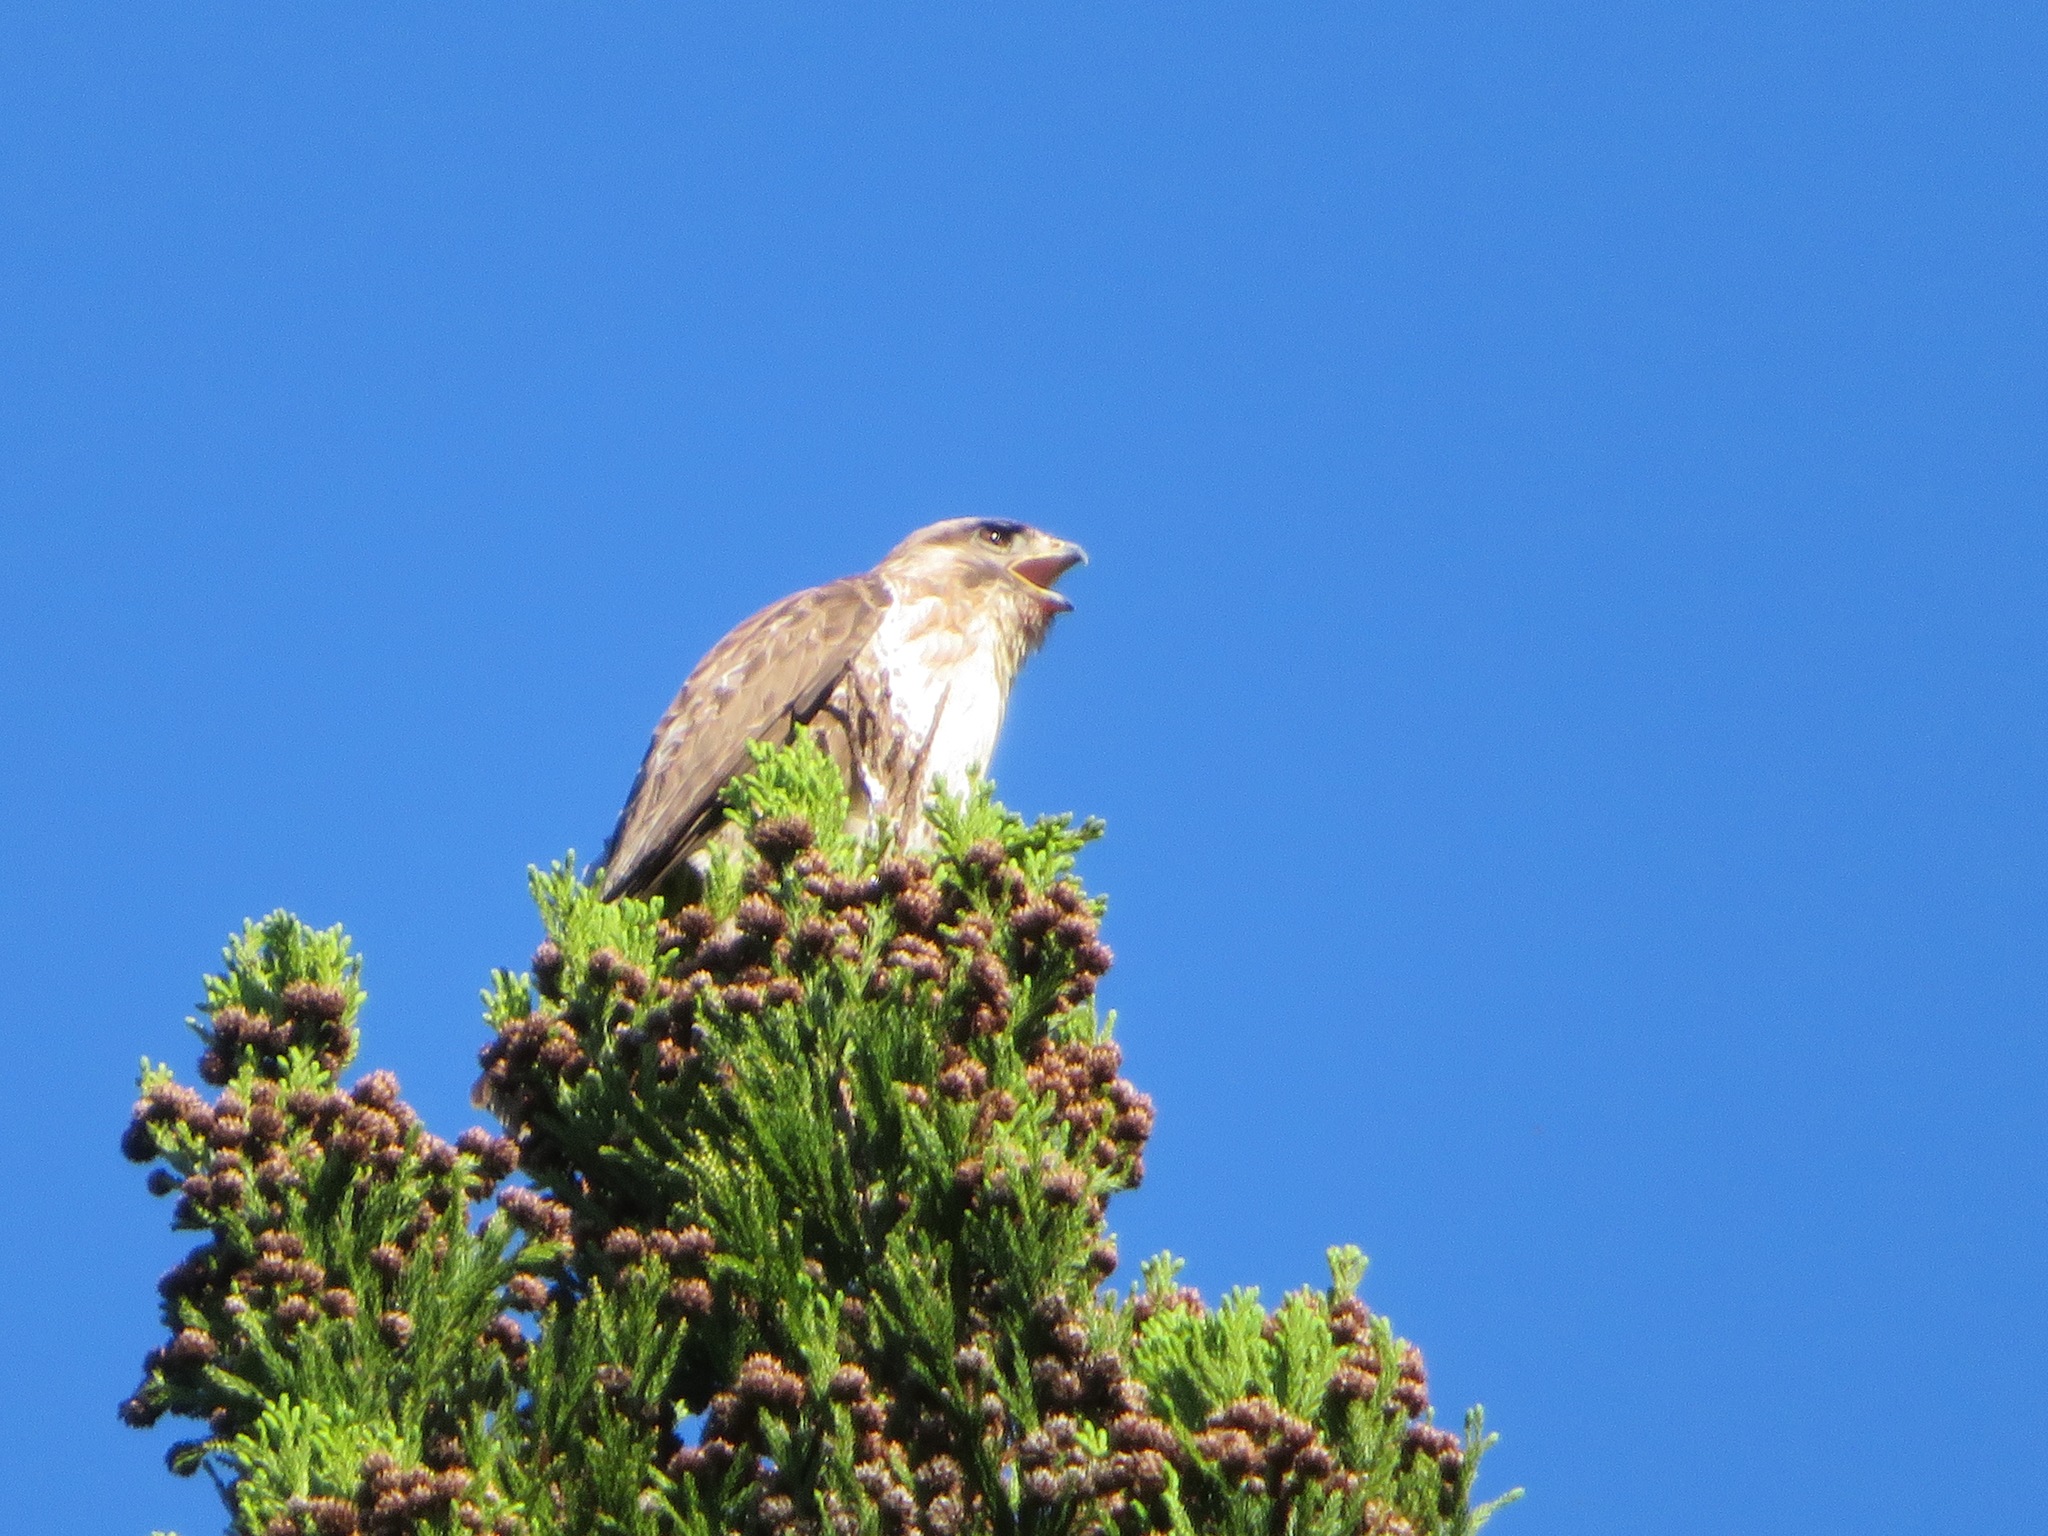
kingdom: Animalia
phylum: Chordata
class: Aves
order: Accipitriformes
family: Accipitridae
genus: Buteo
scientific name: Buteo japonicus
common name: Eastern buzzard
